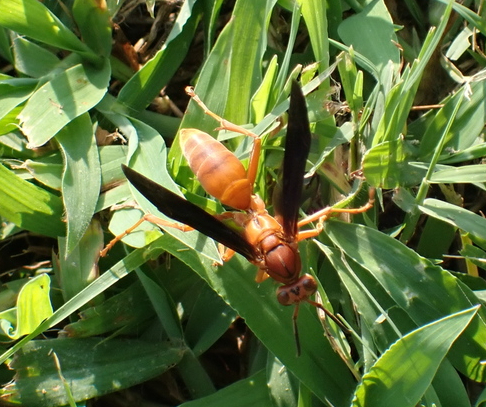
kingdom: Animalia
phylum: Arthropoda
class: Insecta
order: Hymenoptera
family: Eumenidae
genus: Polistes
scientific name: Polistes carolina
